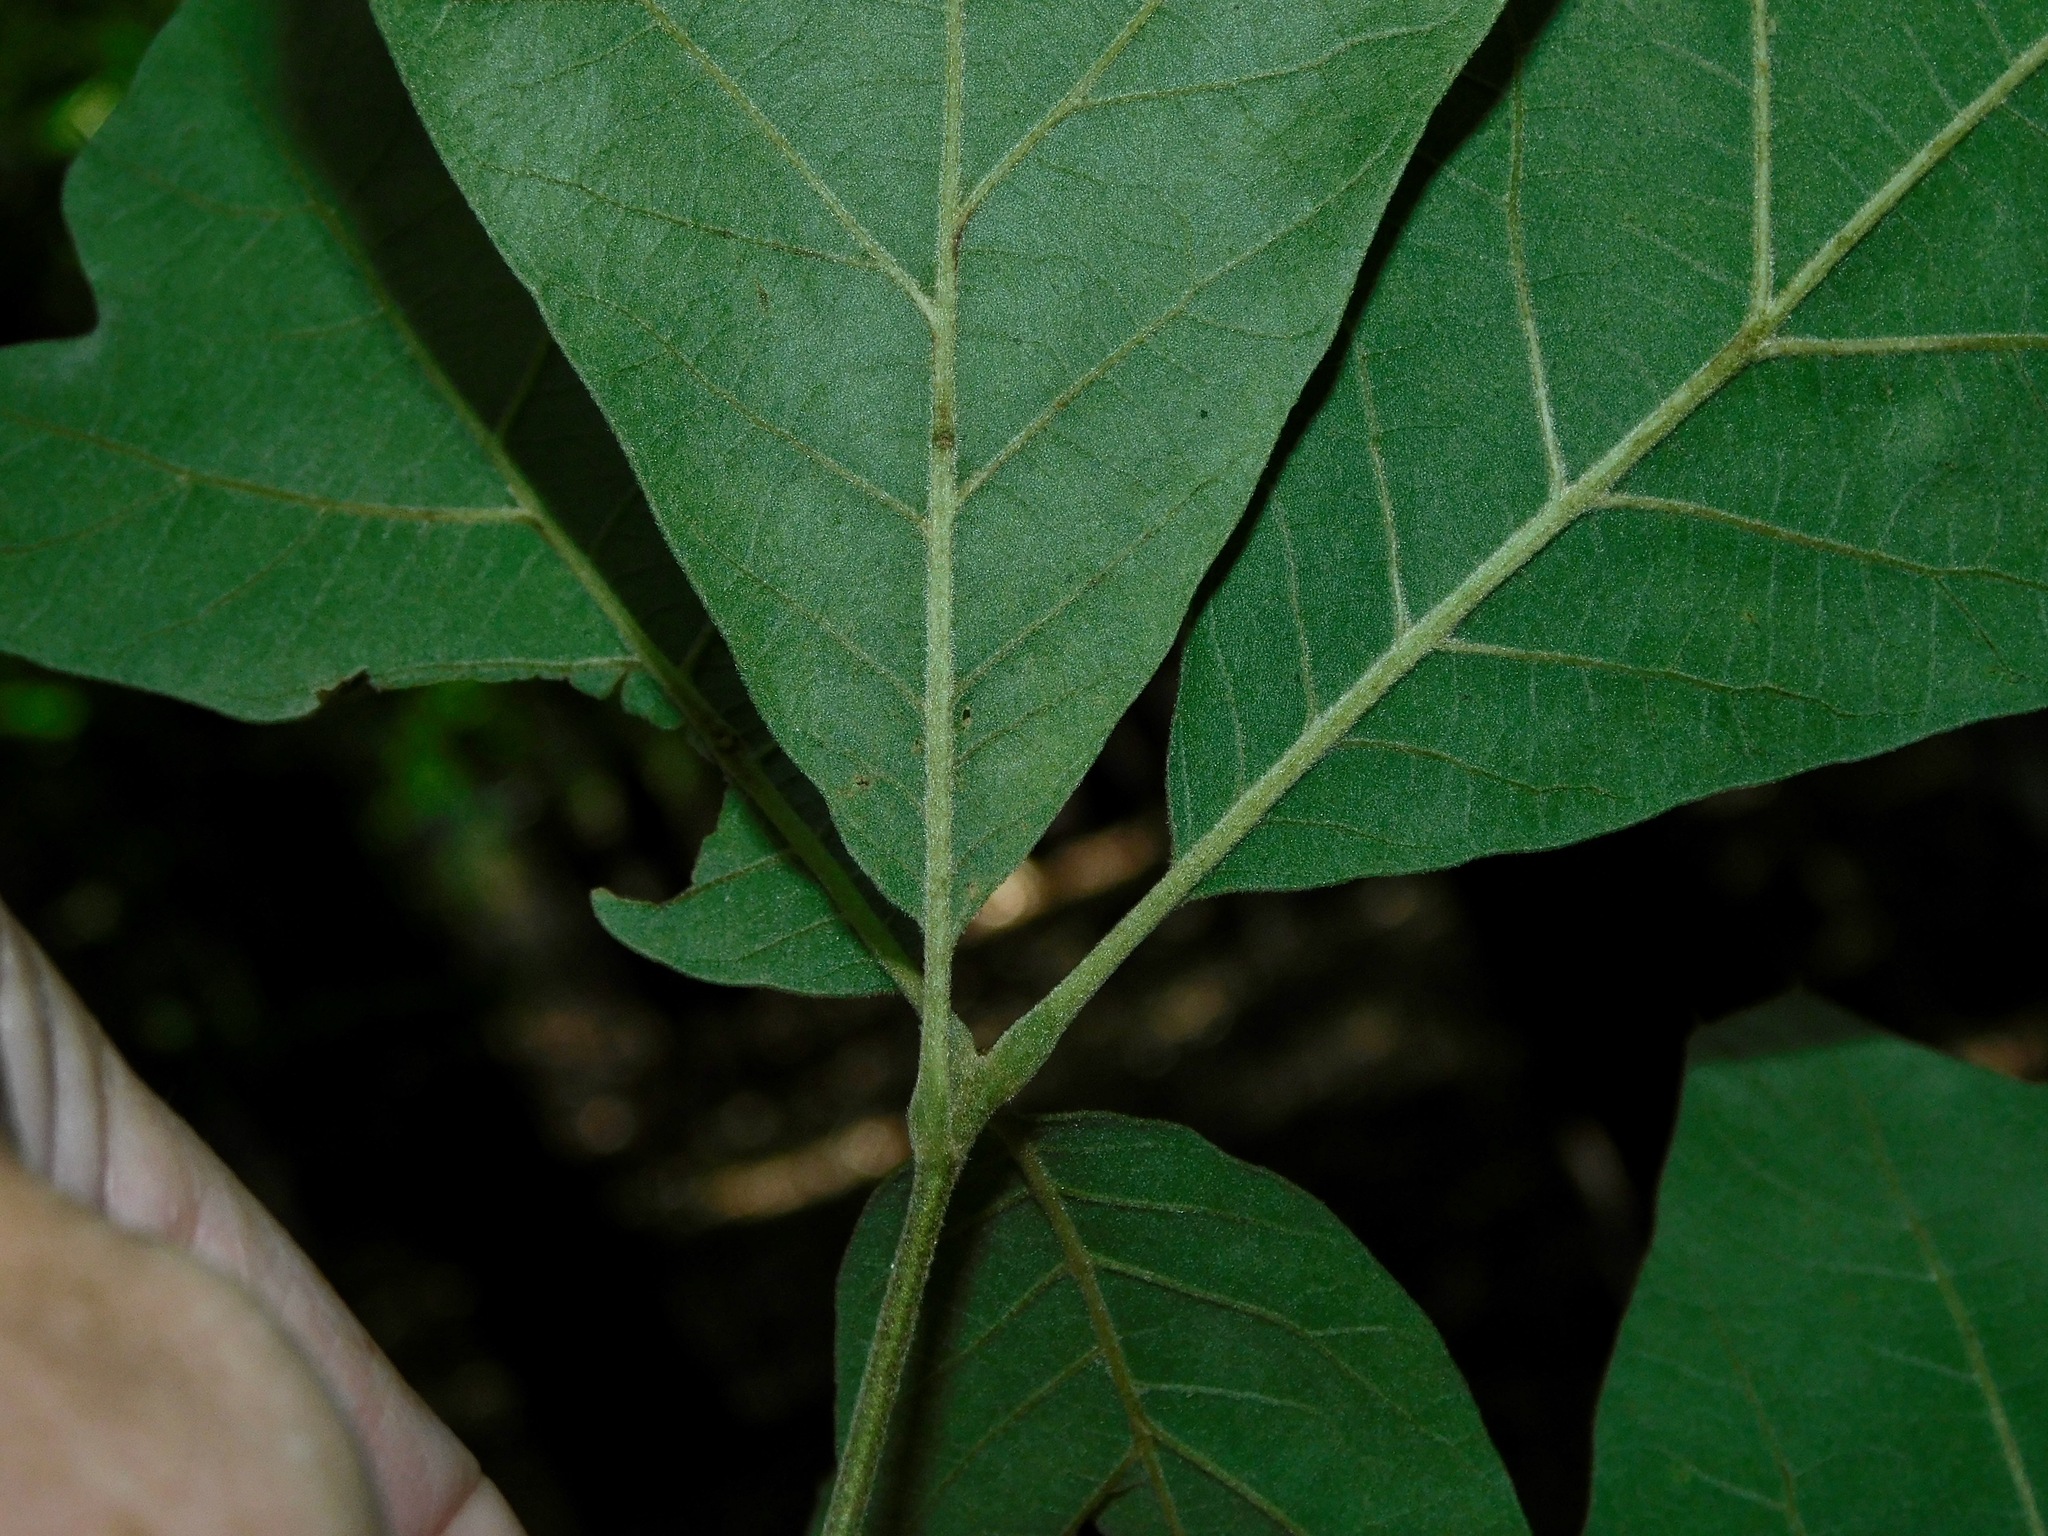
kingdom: Plantae
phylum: Tracheophyta
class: Magnoliopsida
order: Fagales
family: Fagaceae
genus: Quercus
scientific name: Quercus marilandica
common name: Blackjack oak
